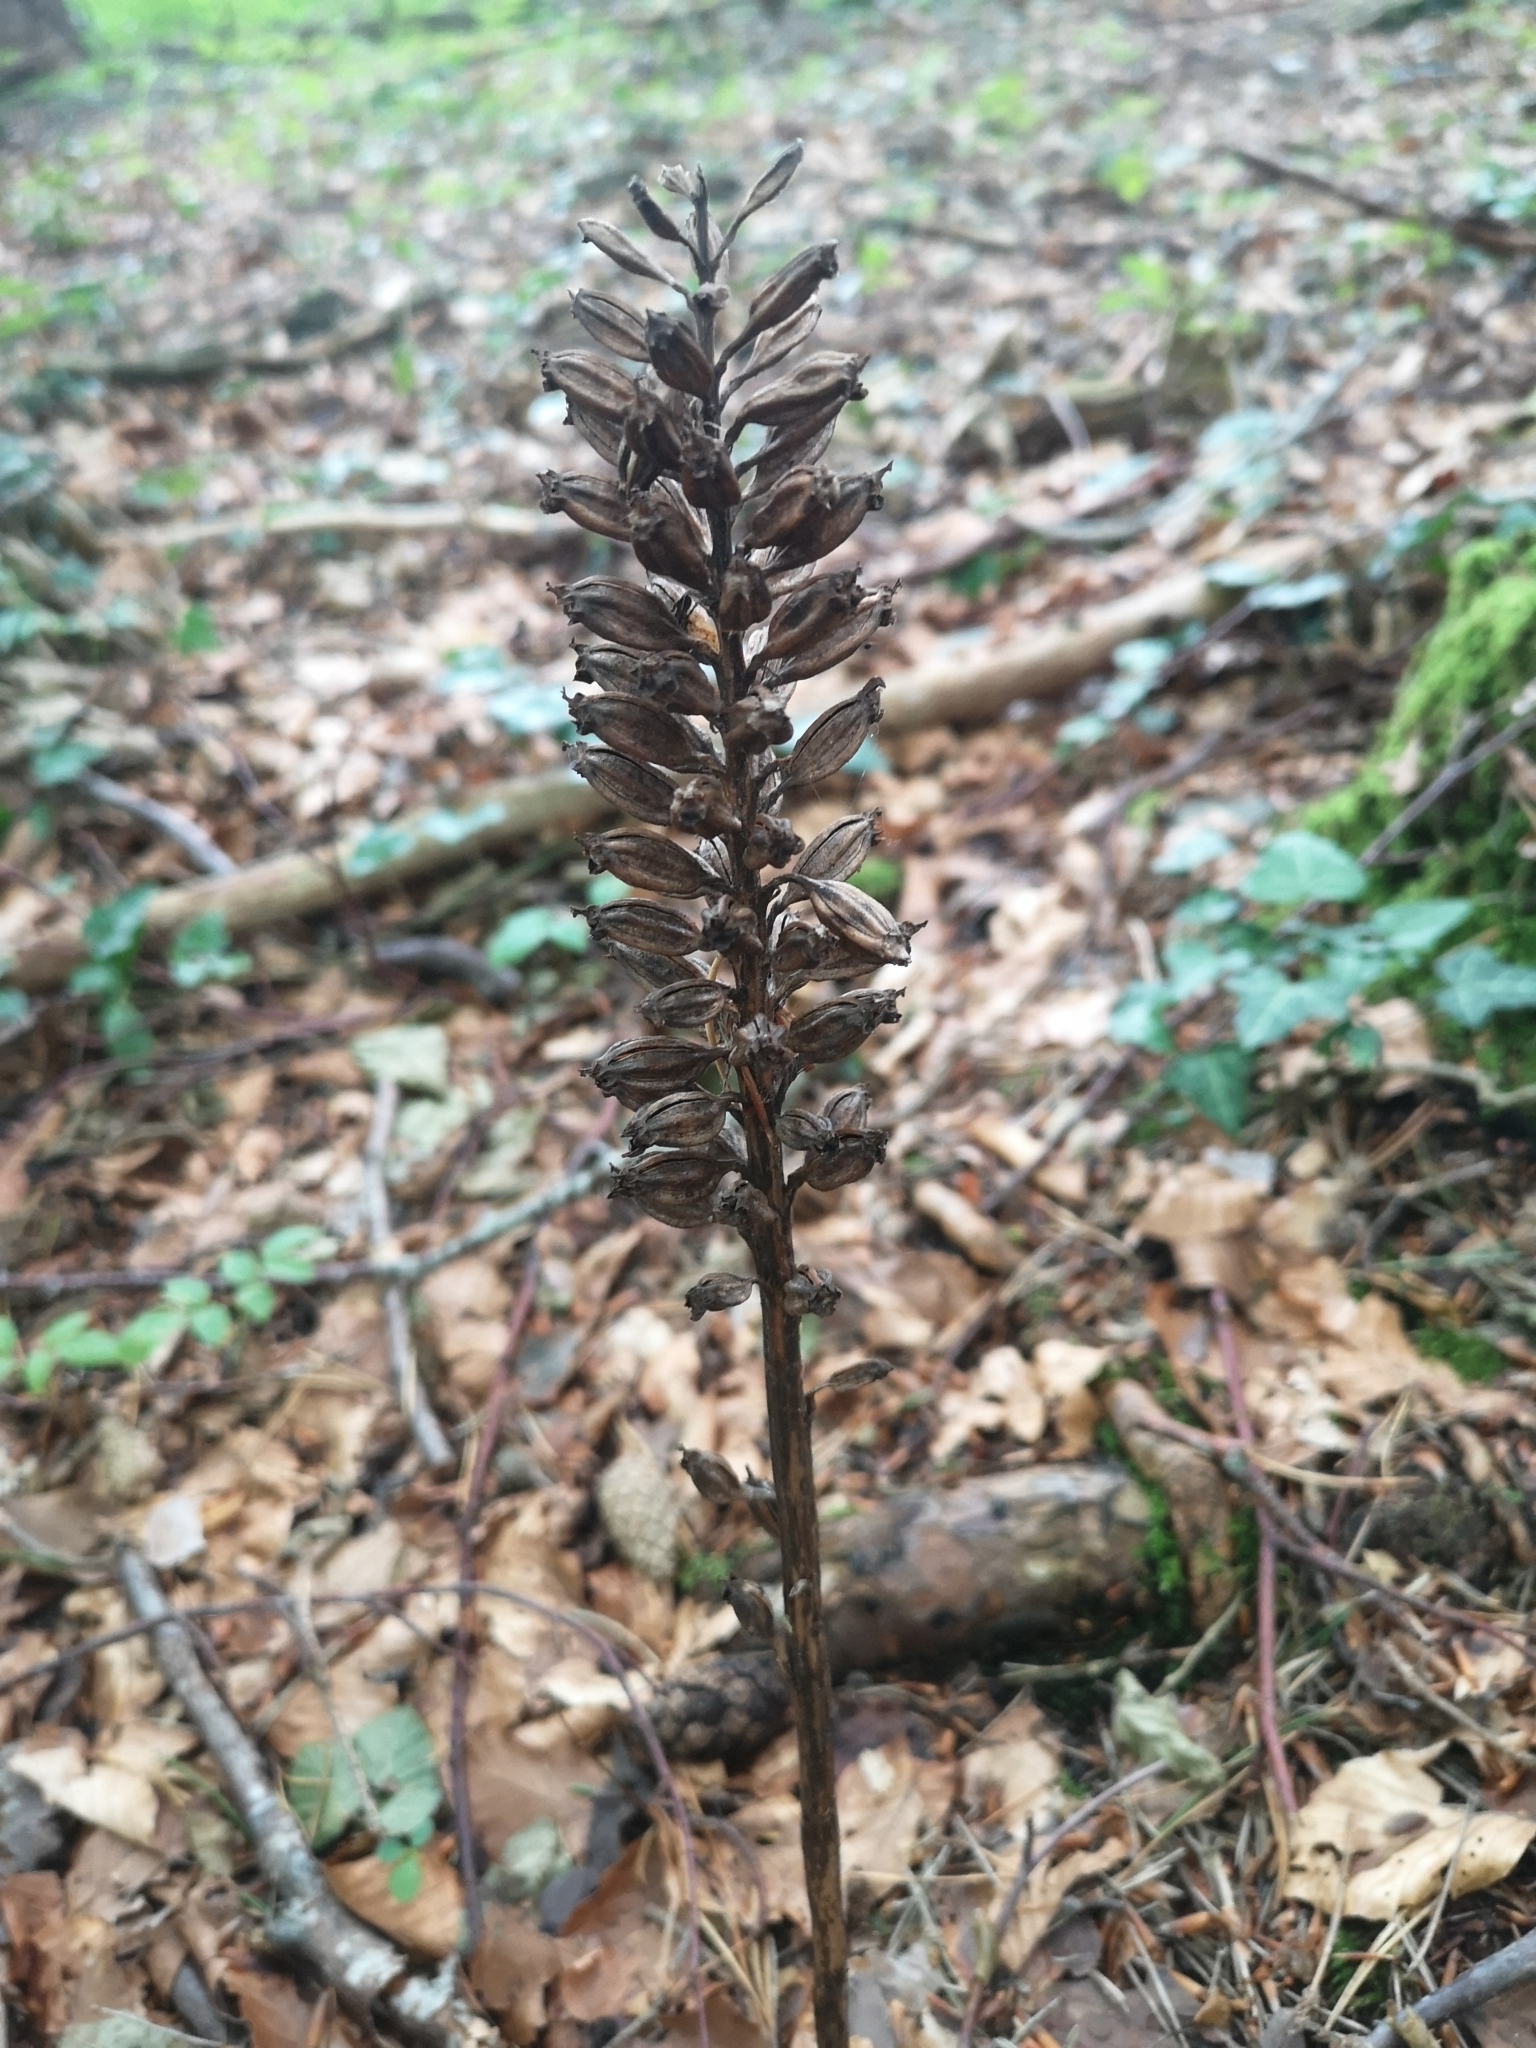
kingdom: Plantae
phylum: Tracheophyta
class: Liliopsida
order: Asparagales
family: Orchidaceae
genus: Neottia
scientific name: Neottia nidus-avis
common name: Bird's-nest orchid
